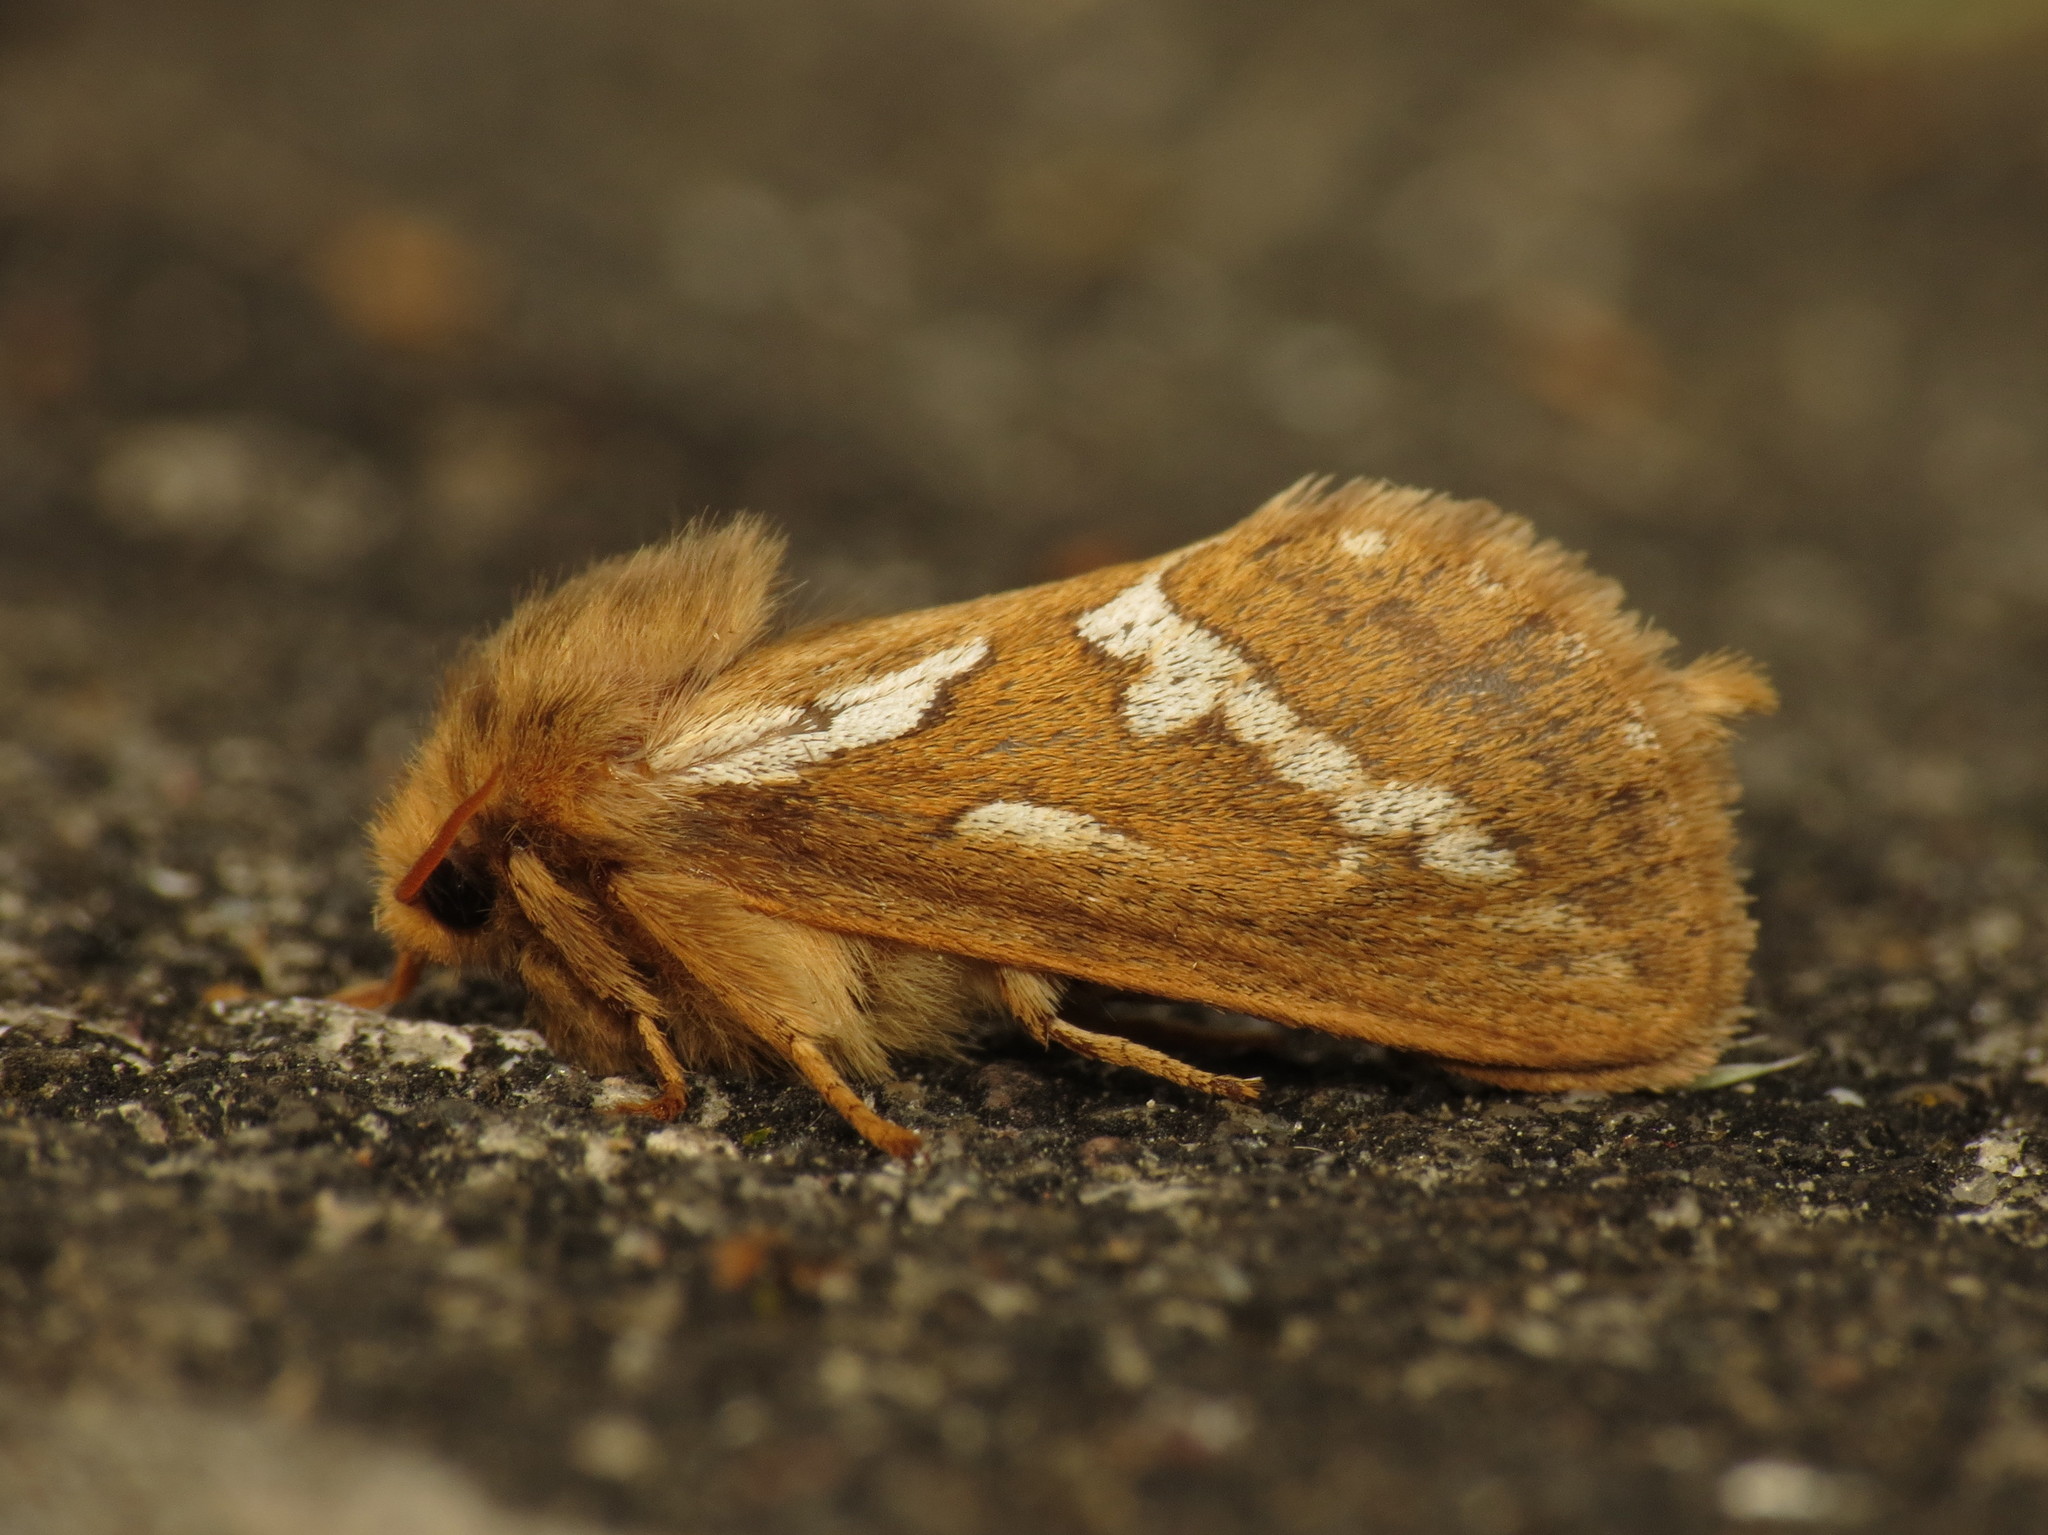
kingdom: Animalia
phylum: Arthropoda
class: Insecta
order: Lepidoptera
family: Hepialidae
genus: Korscheltellus
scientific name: Korscheltellus lupulina
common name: Common swift
